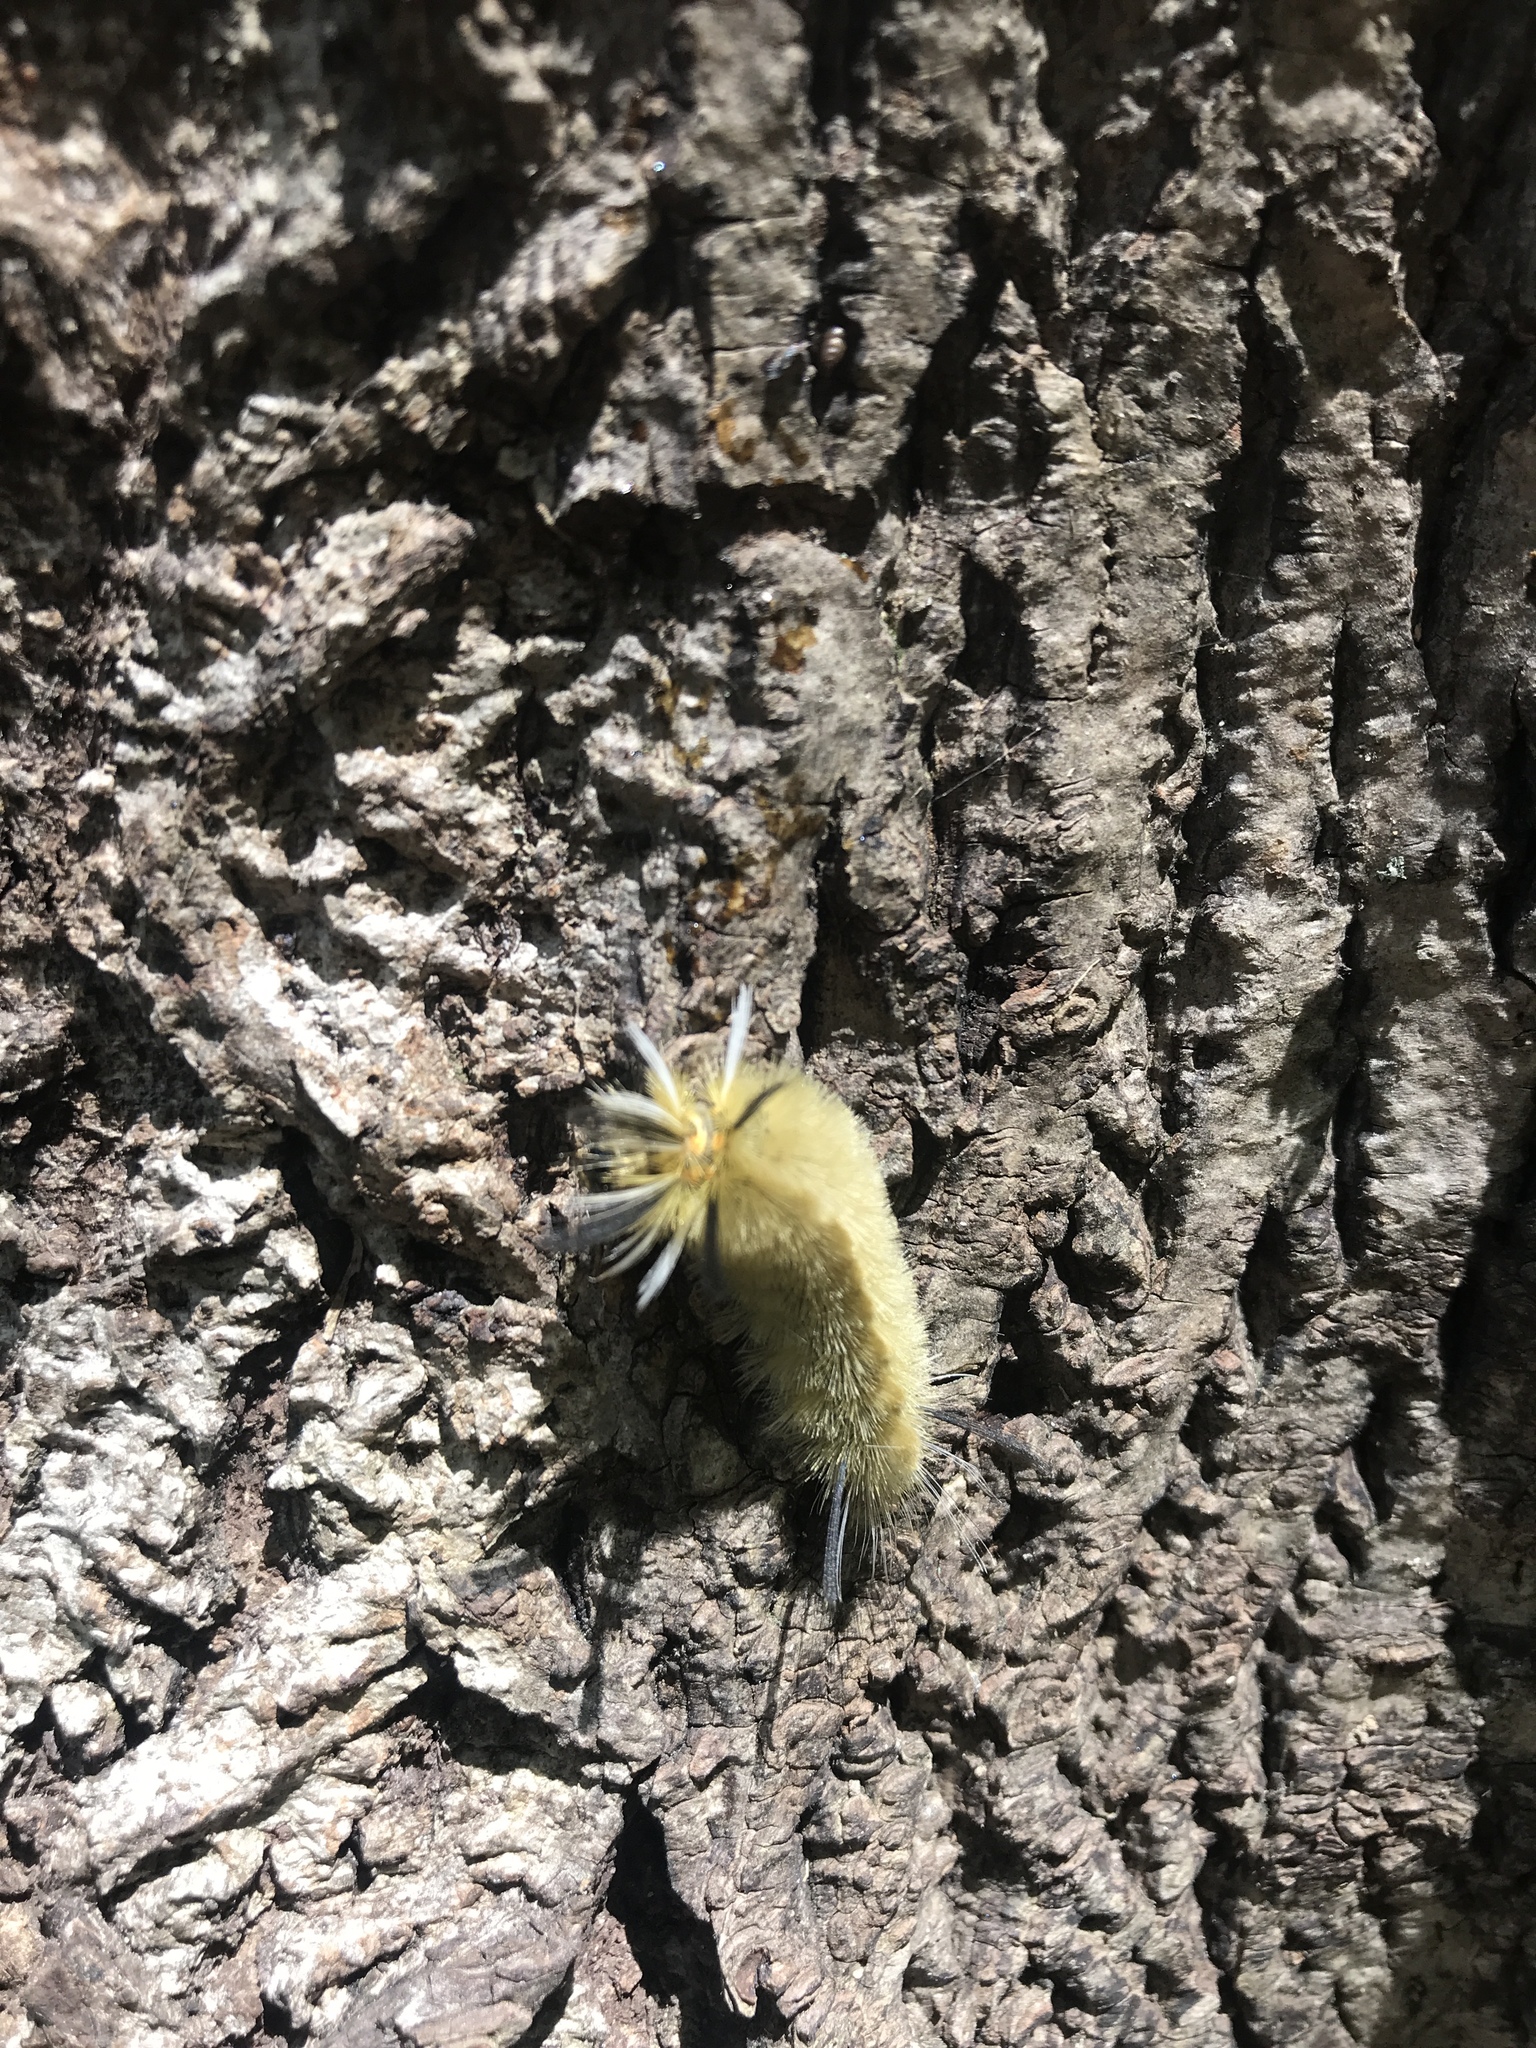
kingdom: Animalia
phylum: Arthropoda
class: Insecta
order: Lepidoptera
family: Erebidae
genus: Halysidota
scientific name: Halysidota tessellaris
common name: Banded tussock moth
